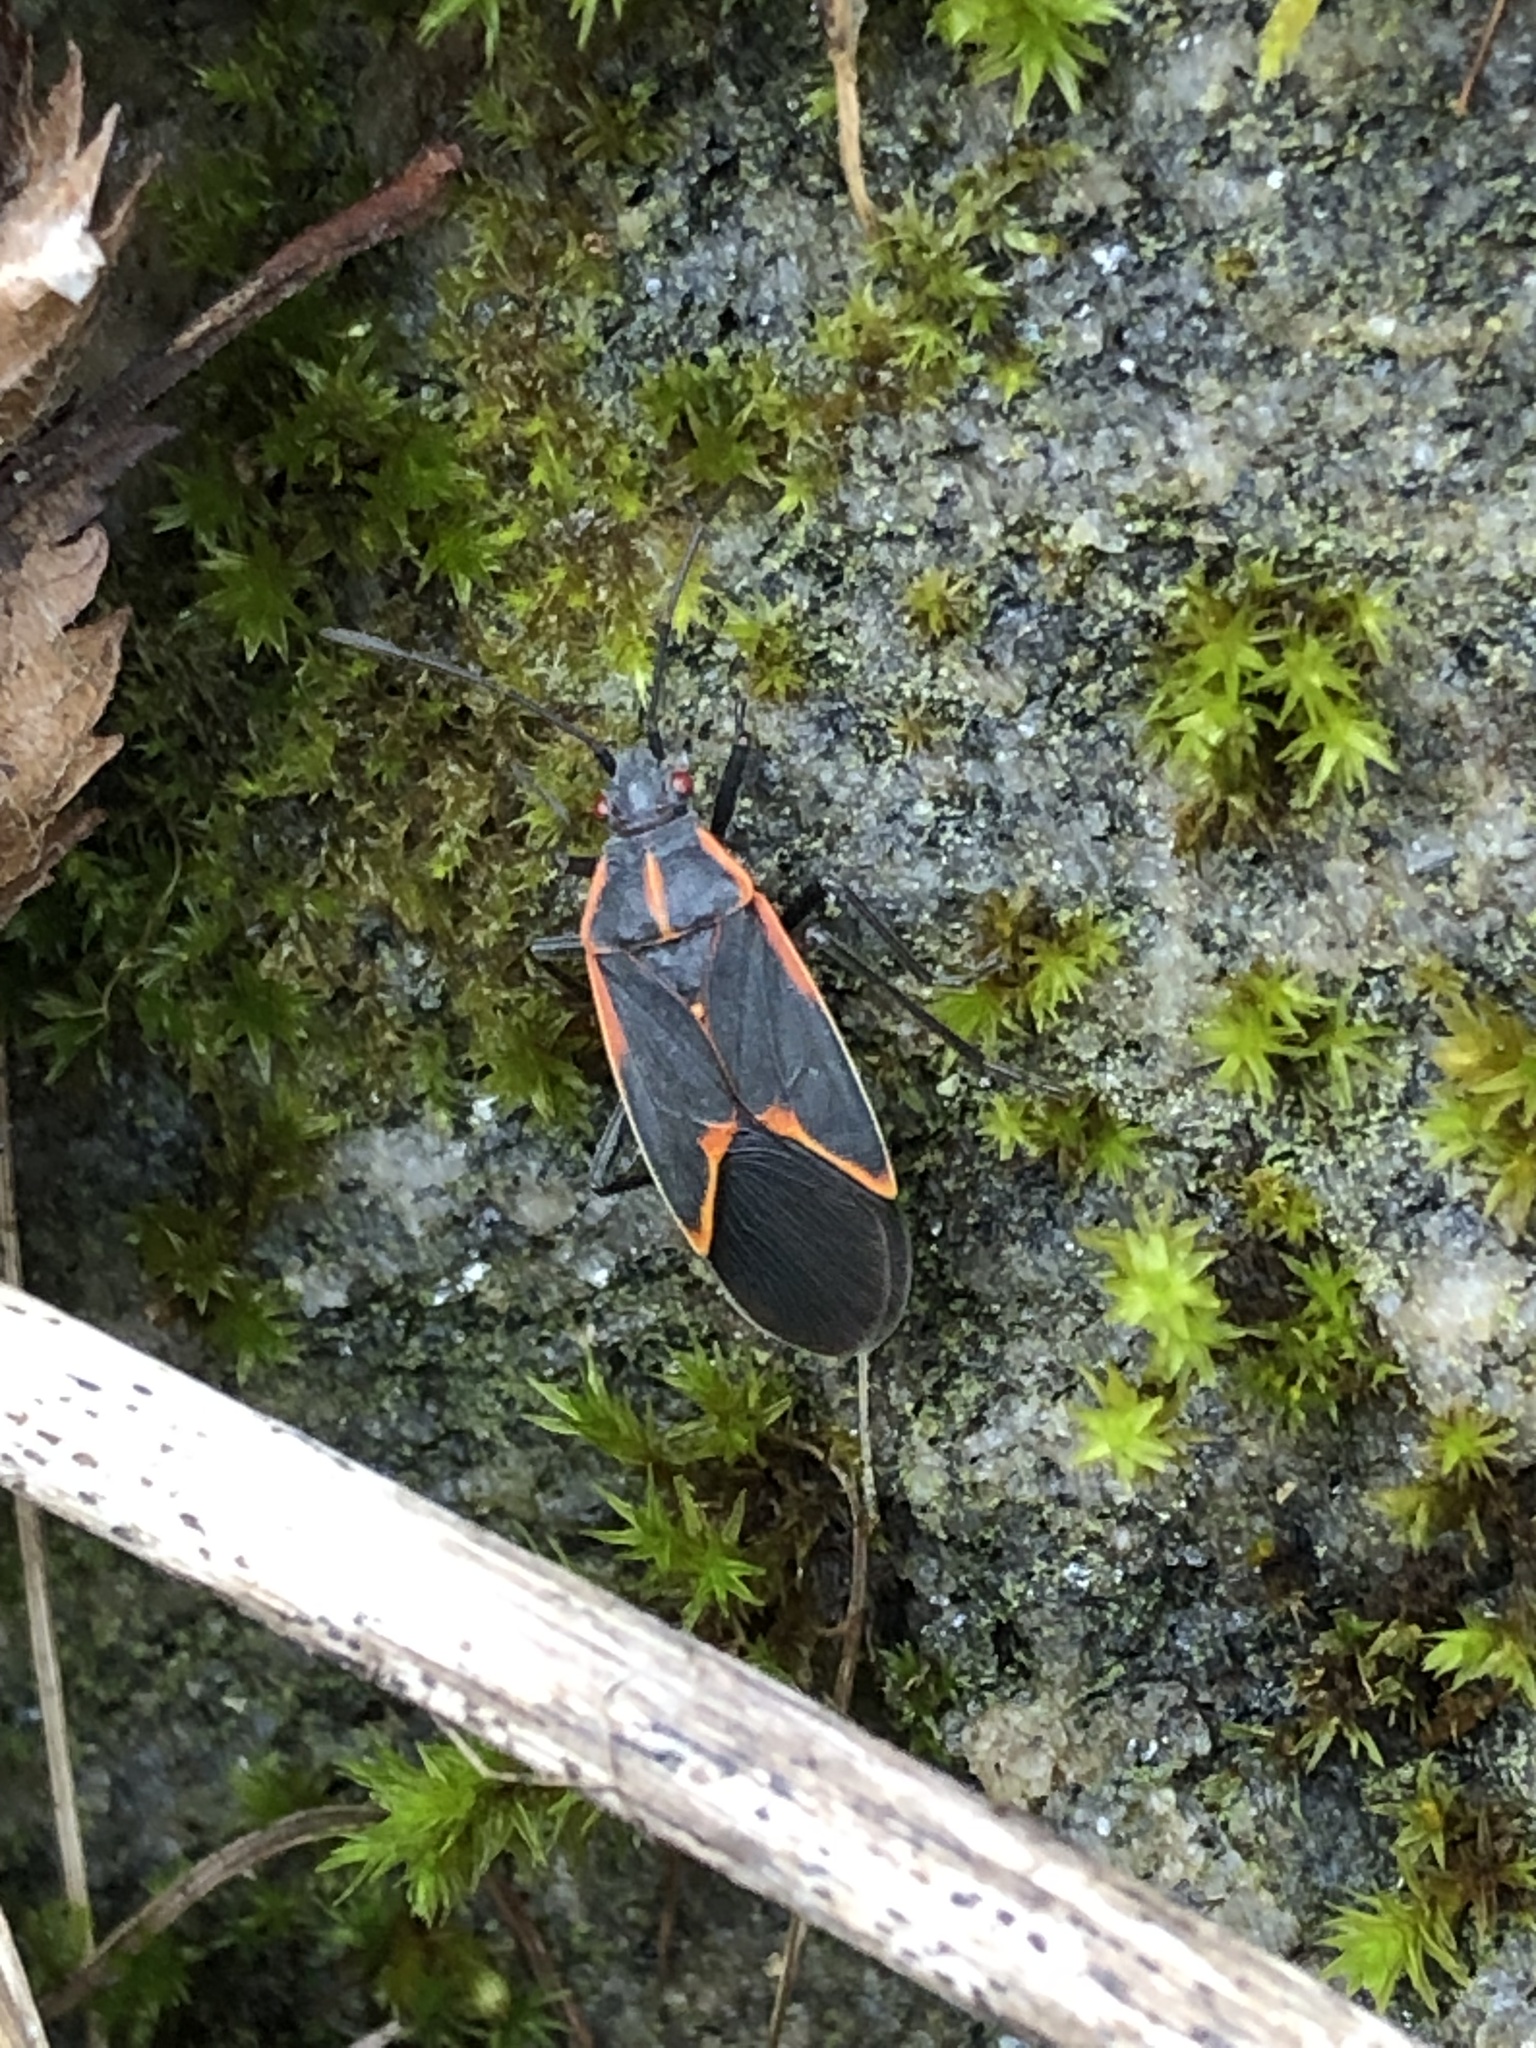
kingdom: Animalia
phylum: Arthropoda
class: Insecta
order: Hemiptera
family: Rhopalidae
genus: Boisea
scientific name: Boisea trivittata
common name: Boxelder bug
